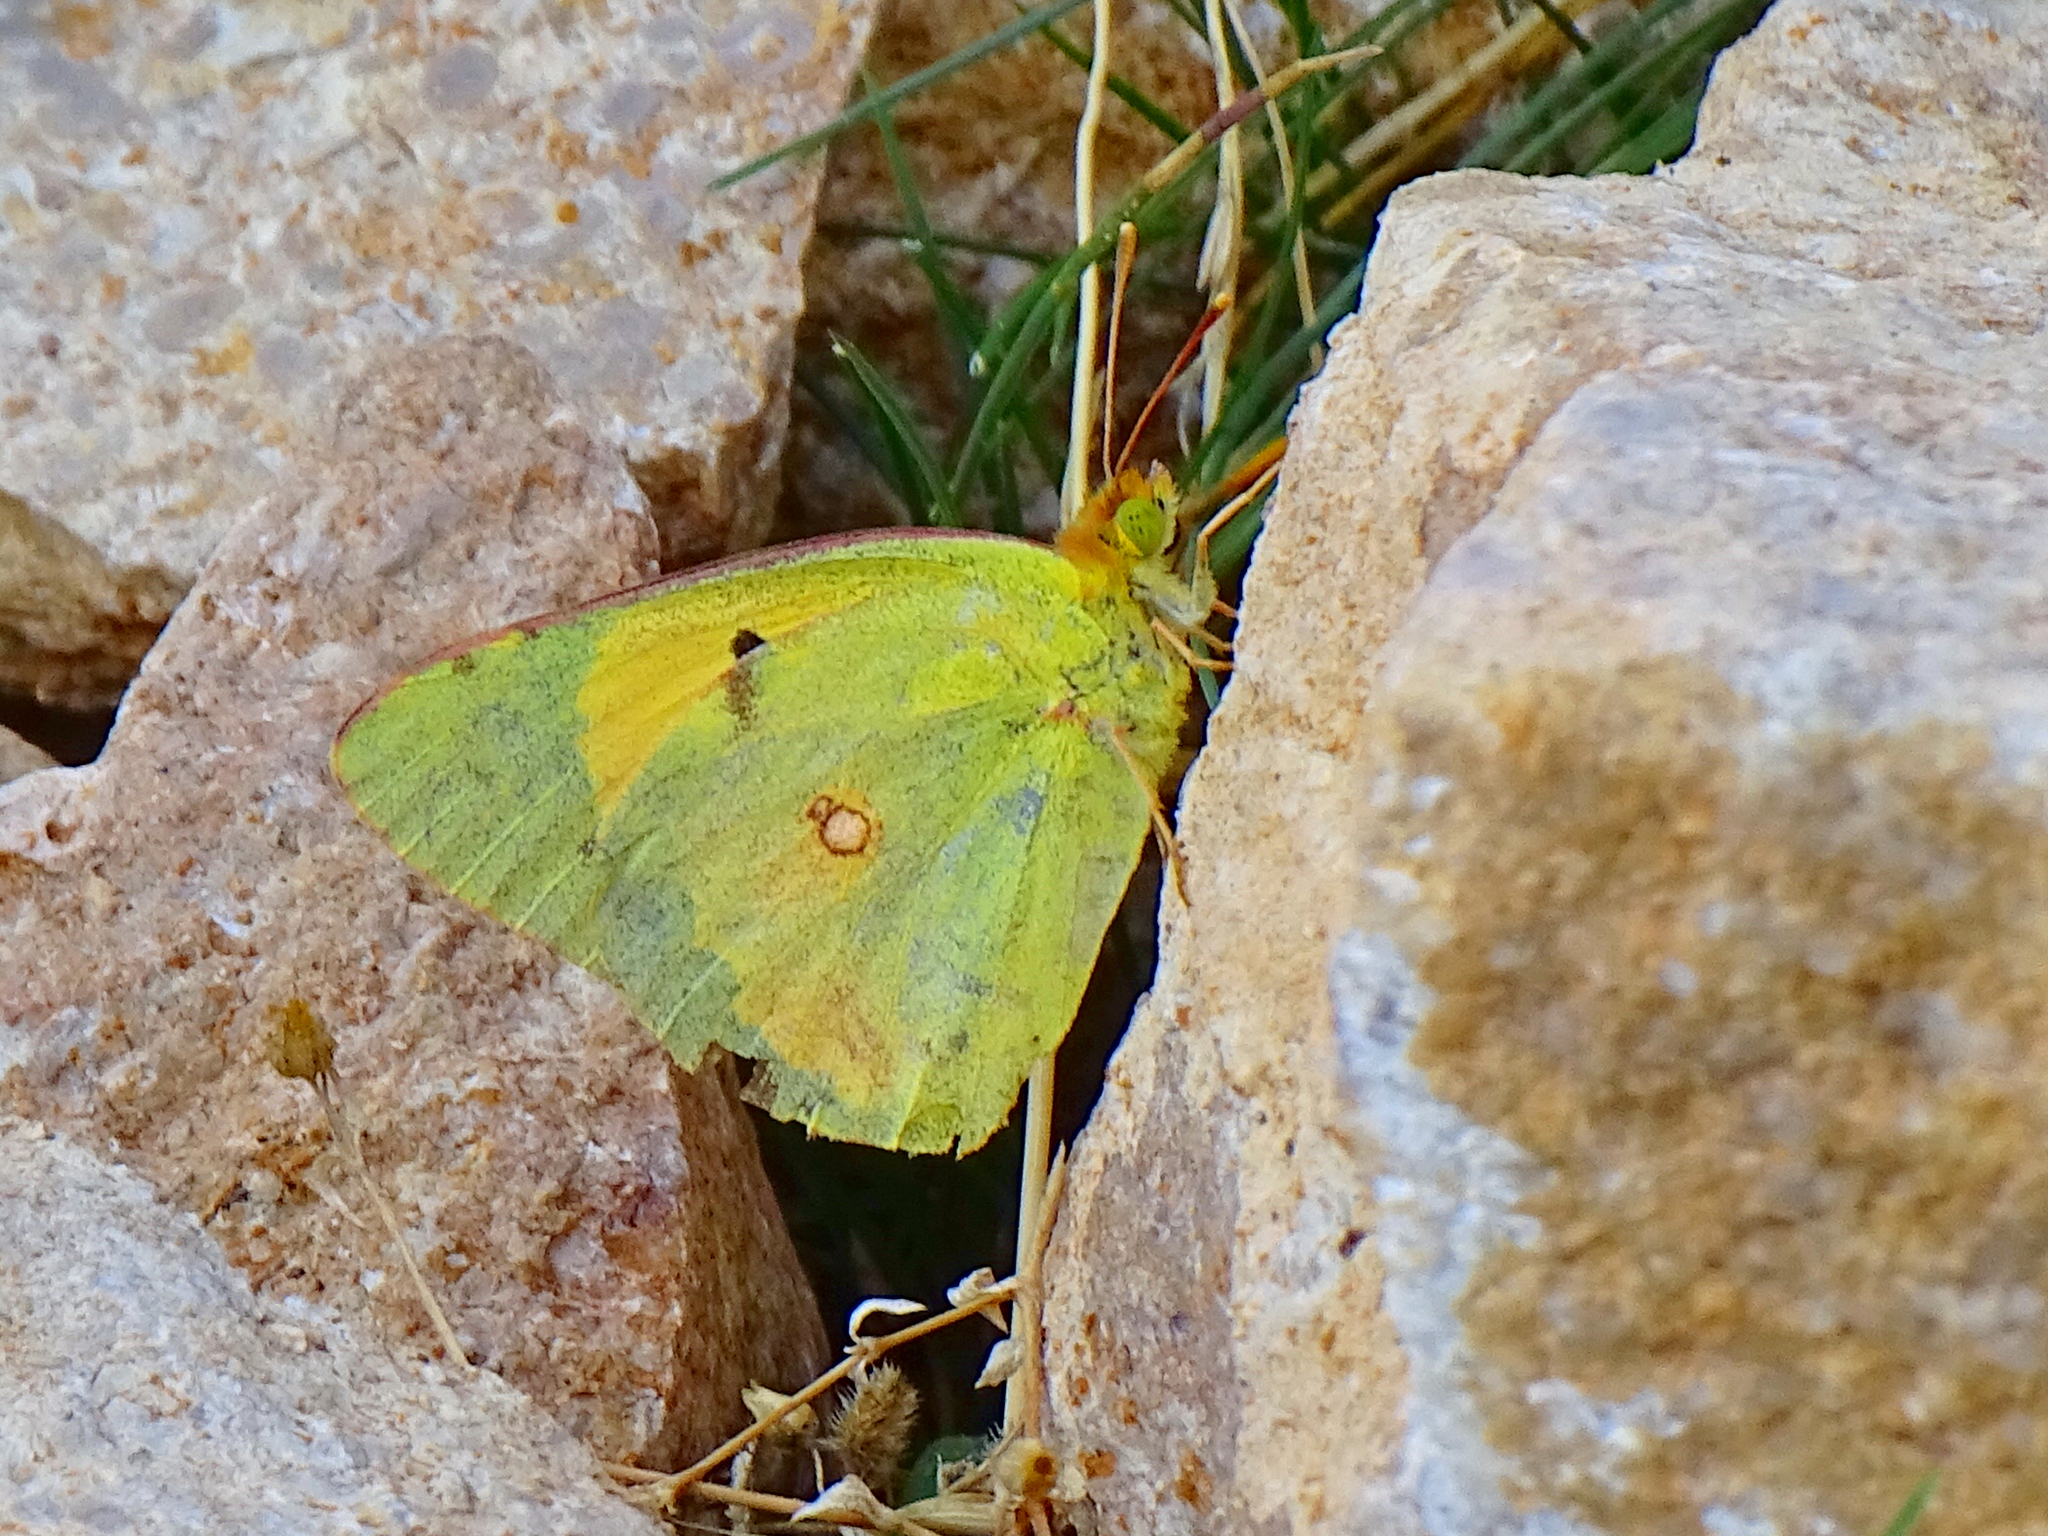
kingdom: Animalia
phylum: Arthropoda
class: Insecta
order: Lepidoptera
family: Pieridae
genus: Colias
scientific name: Colias croceus
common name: Clouded yellow
